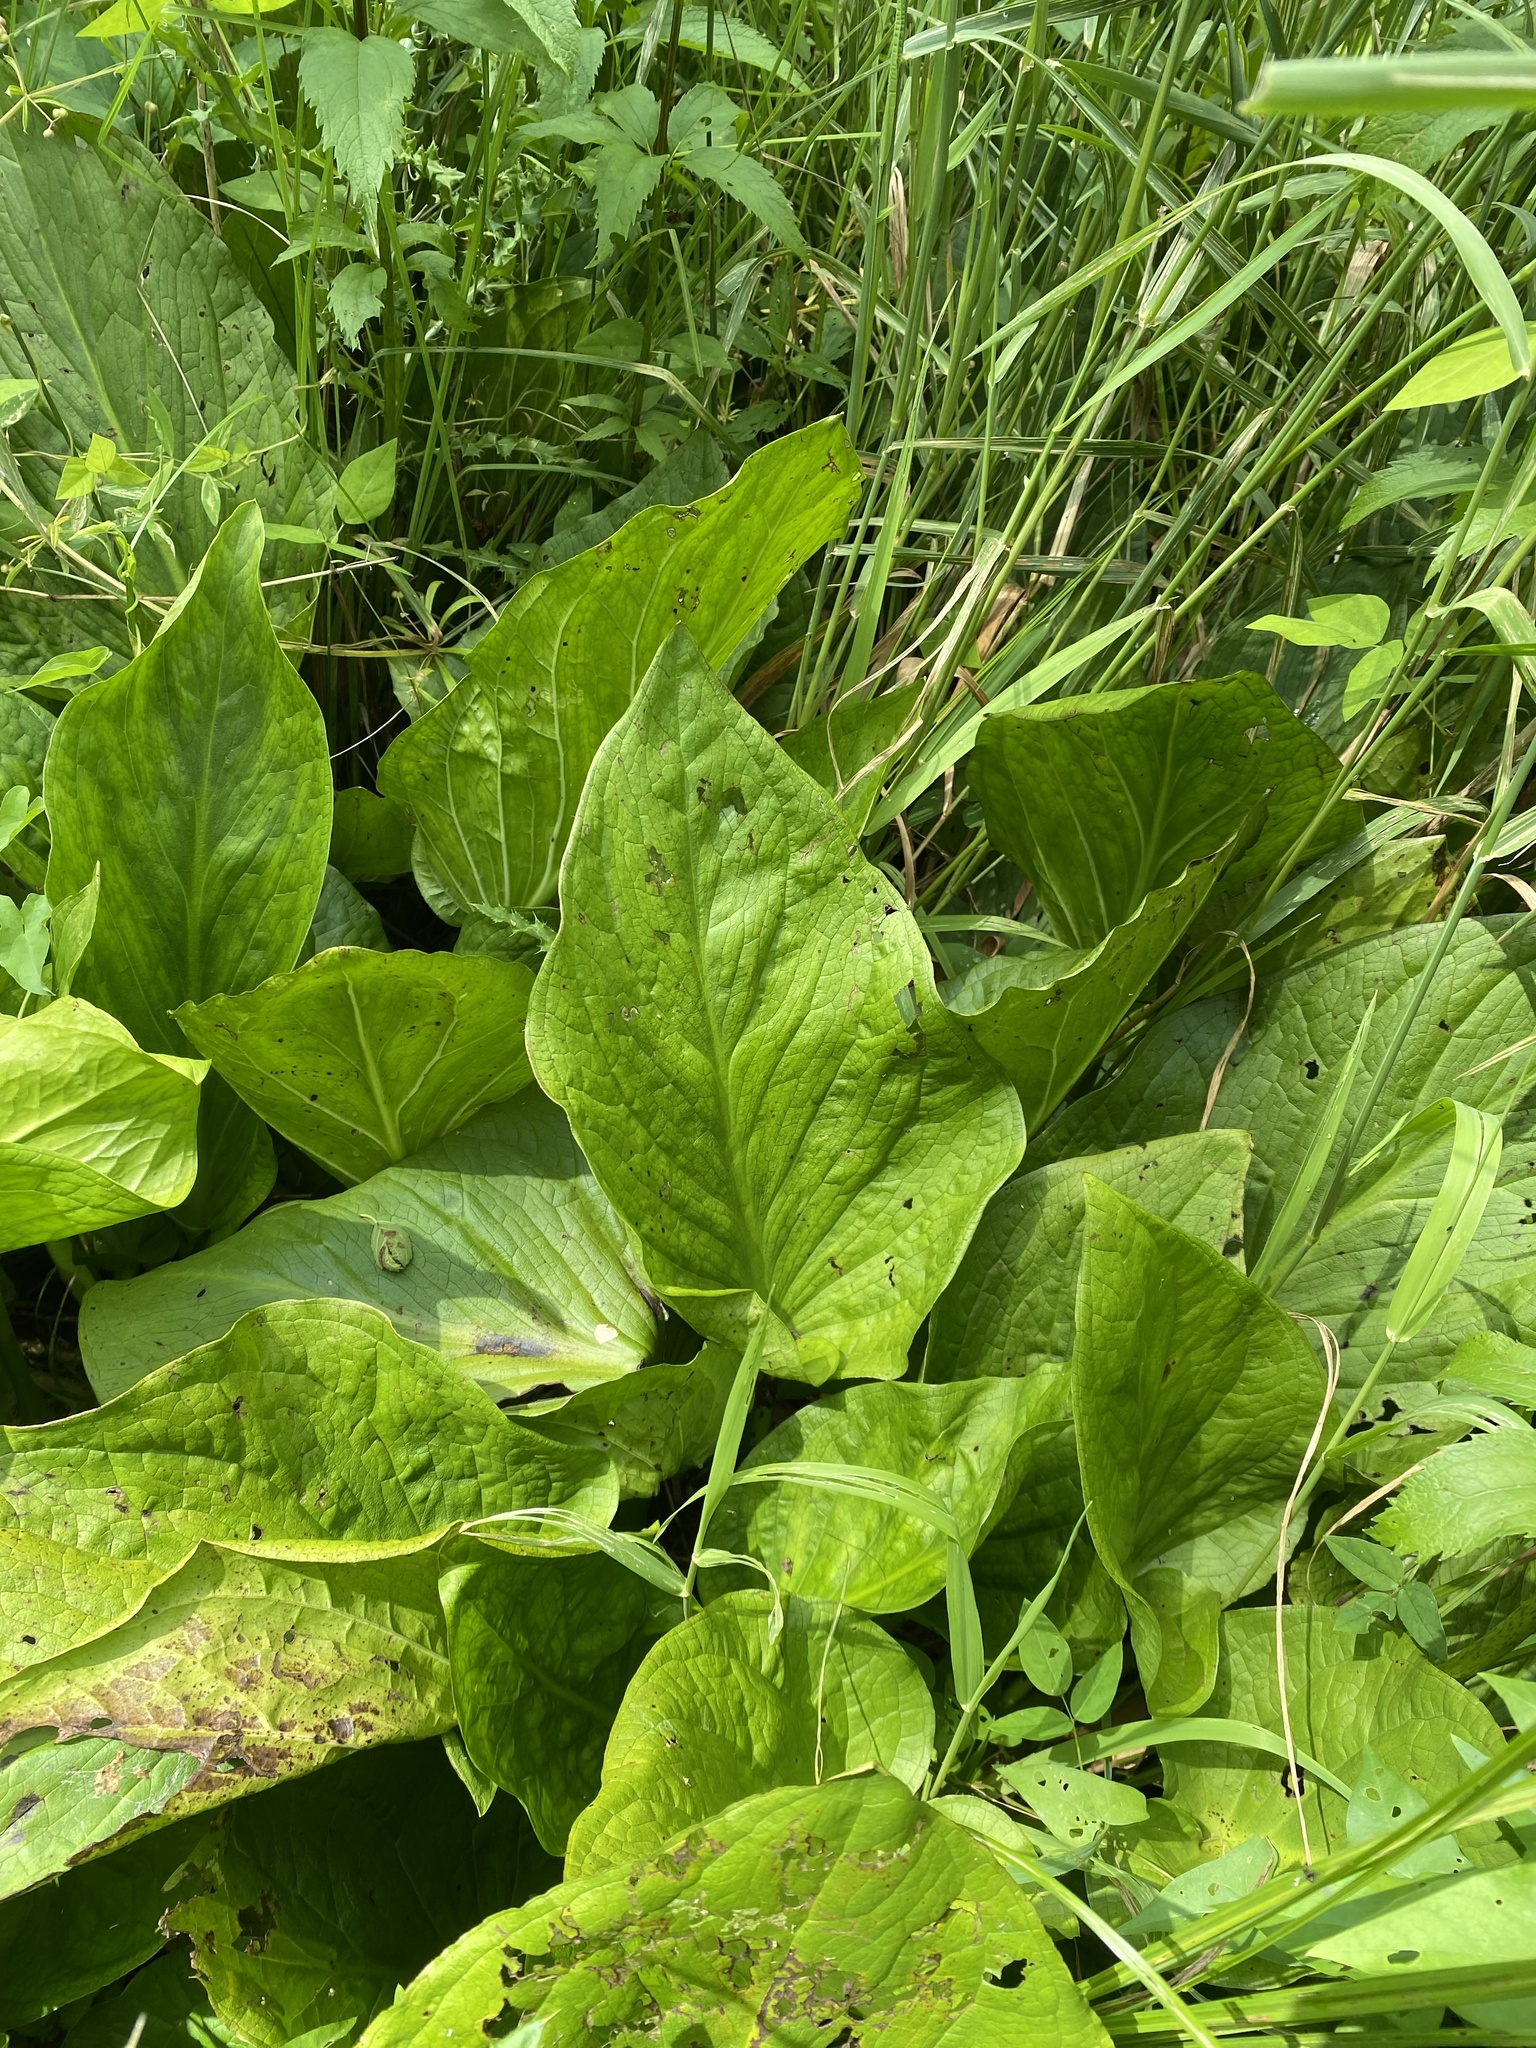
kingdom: Plantae
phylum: Tracheophyta
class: Liliopsida
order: Alismatales
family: Araceae
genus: Symplocarpus
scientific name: Symplocarpus foetidus
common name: Eastern skunk cabbage
